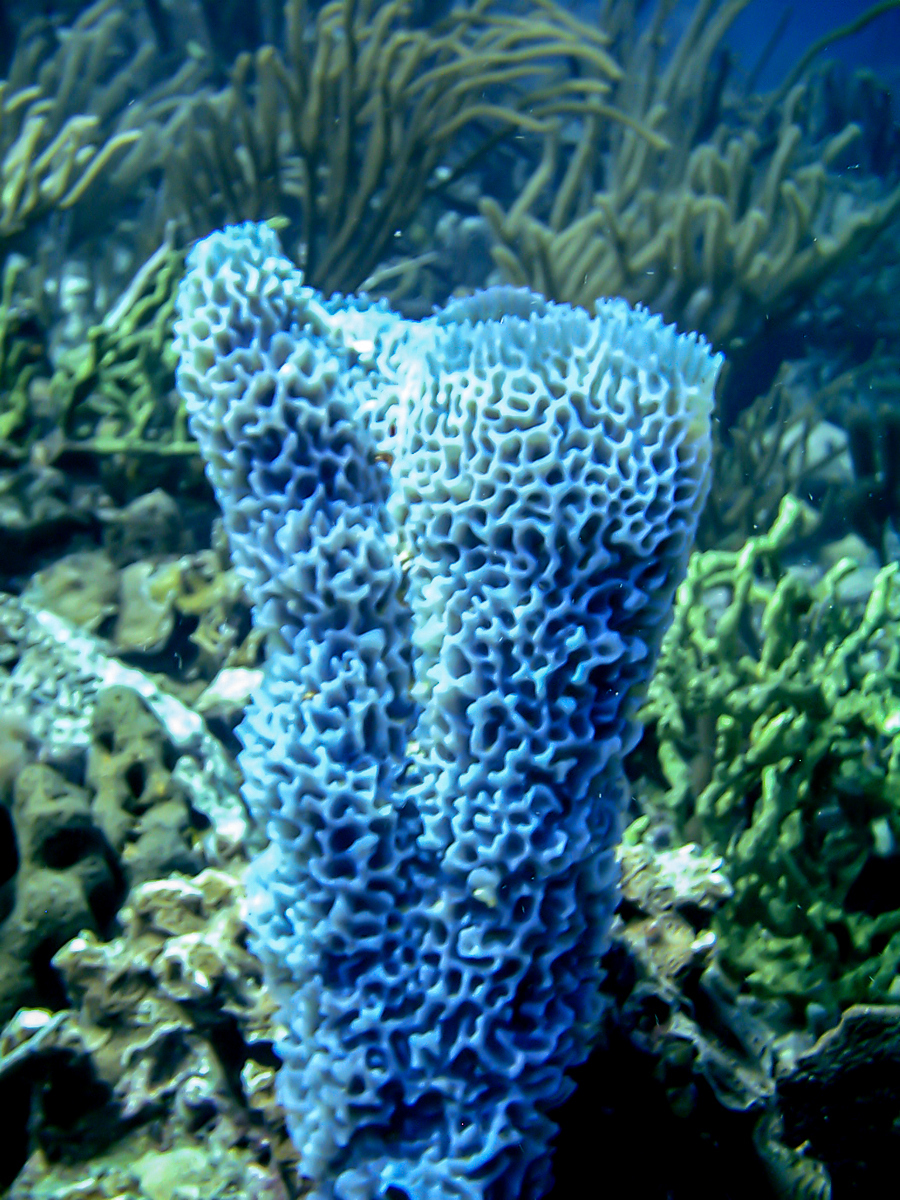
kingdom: Animalia
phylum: Porifera
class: Demospongiae
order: Haplosclerida
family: Callyspongiidae
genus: Callyspongia
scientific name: Callyspongia plicifera
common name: Azure vase sponge
